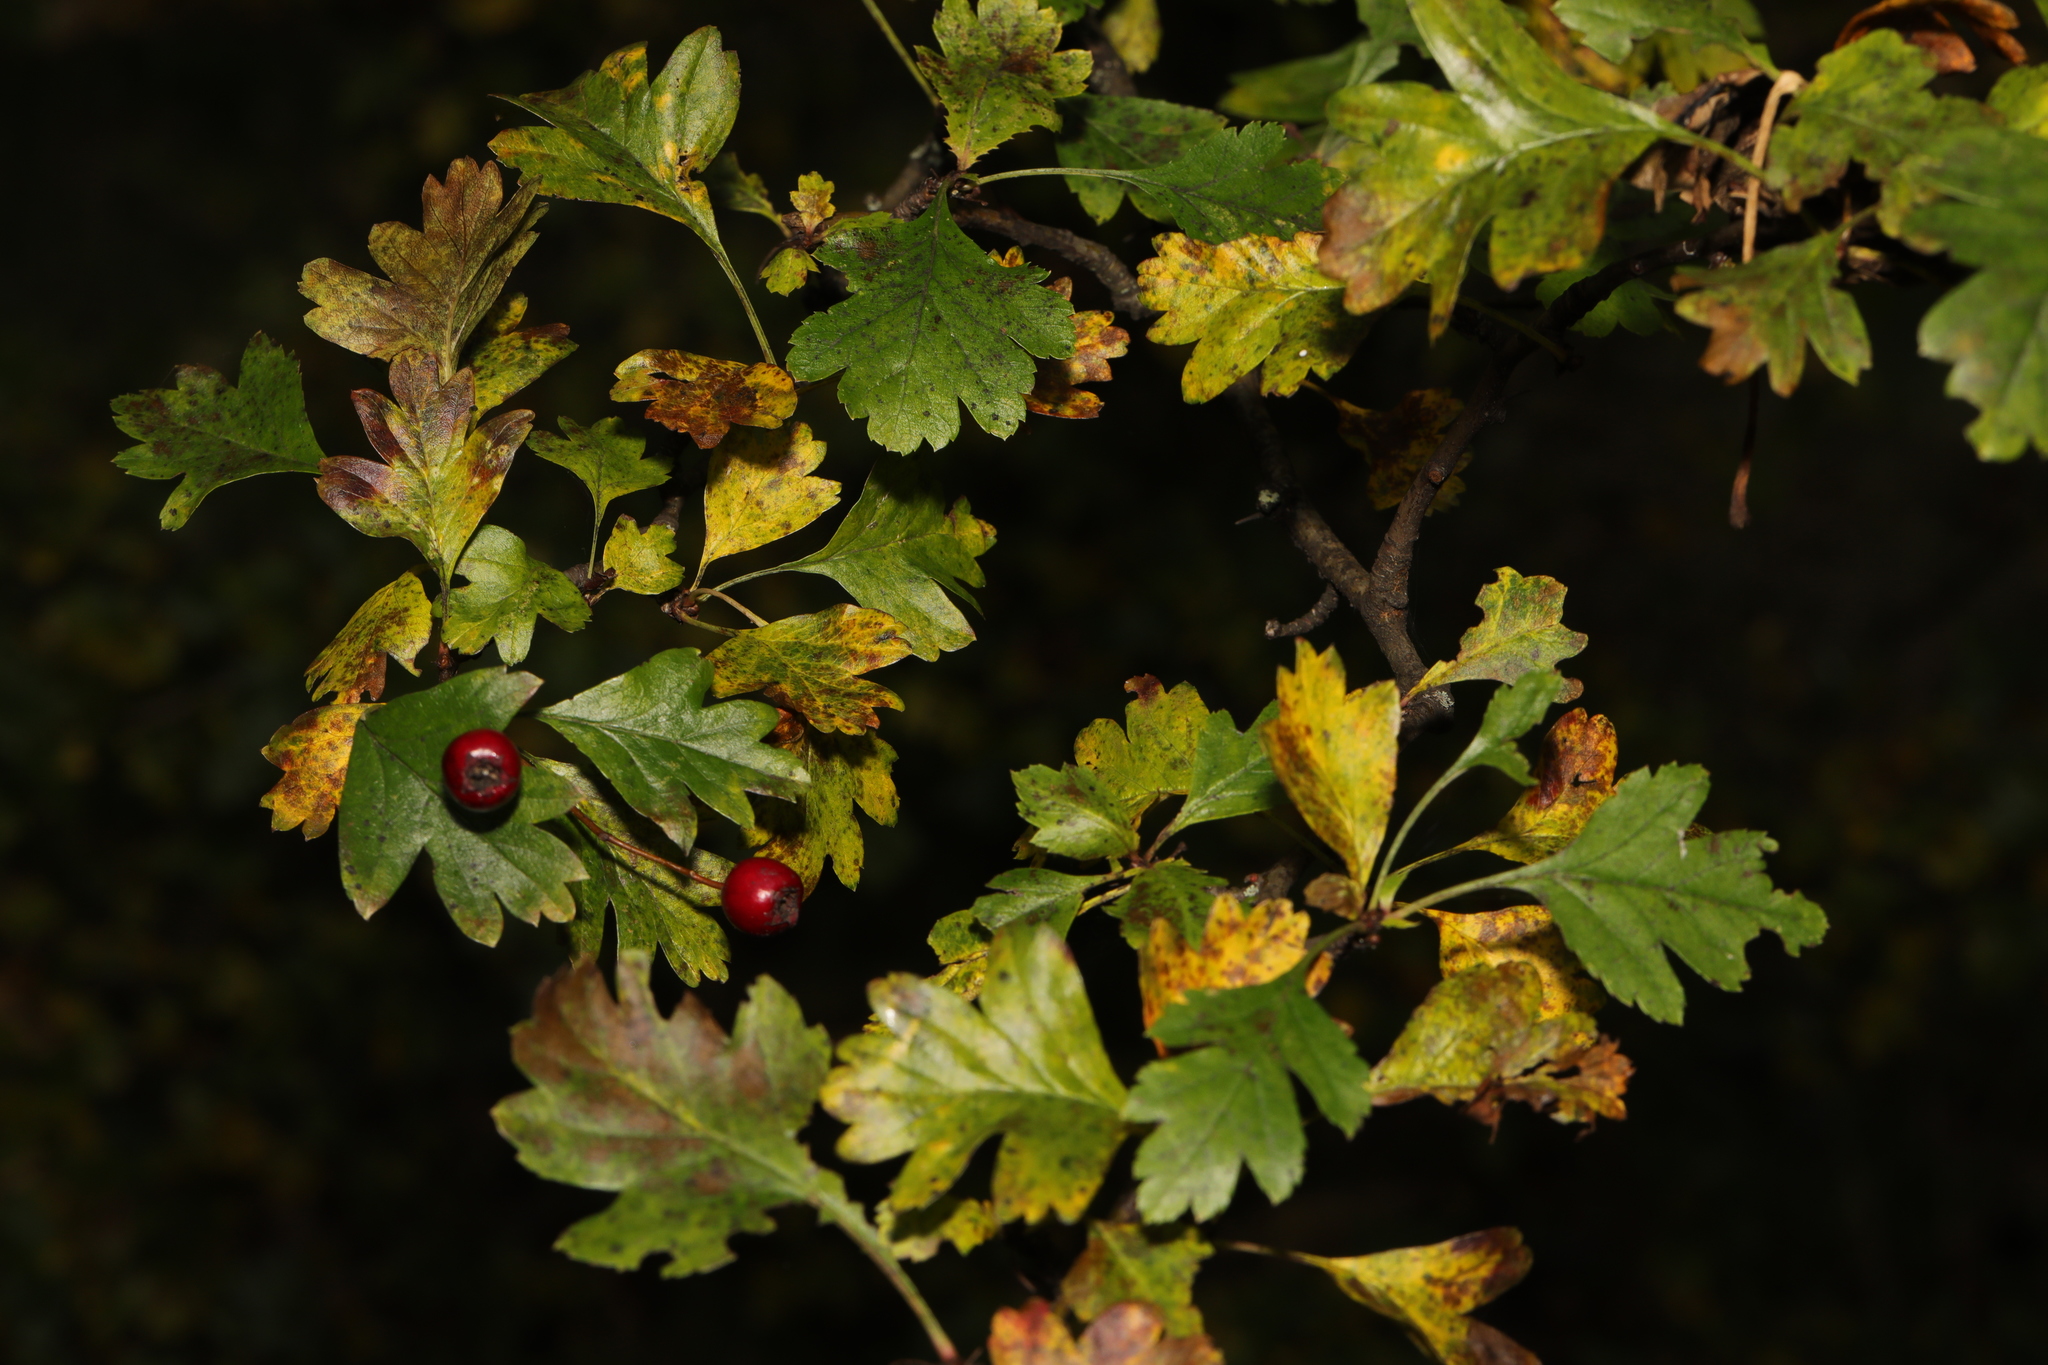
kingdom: Plantae
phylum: Tracheophyta
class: Magnoliopsida
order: Rosales
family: Rosaceae
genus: Crataegus
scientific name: Crataegus monogyna
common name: Hawthorn
